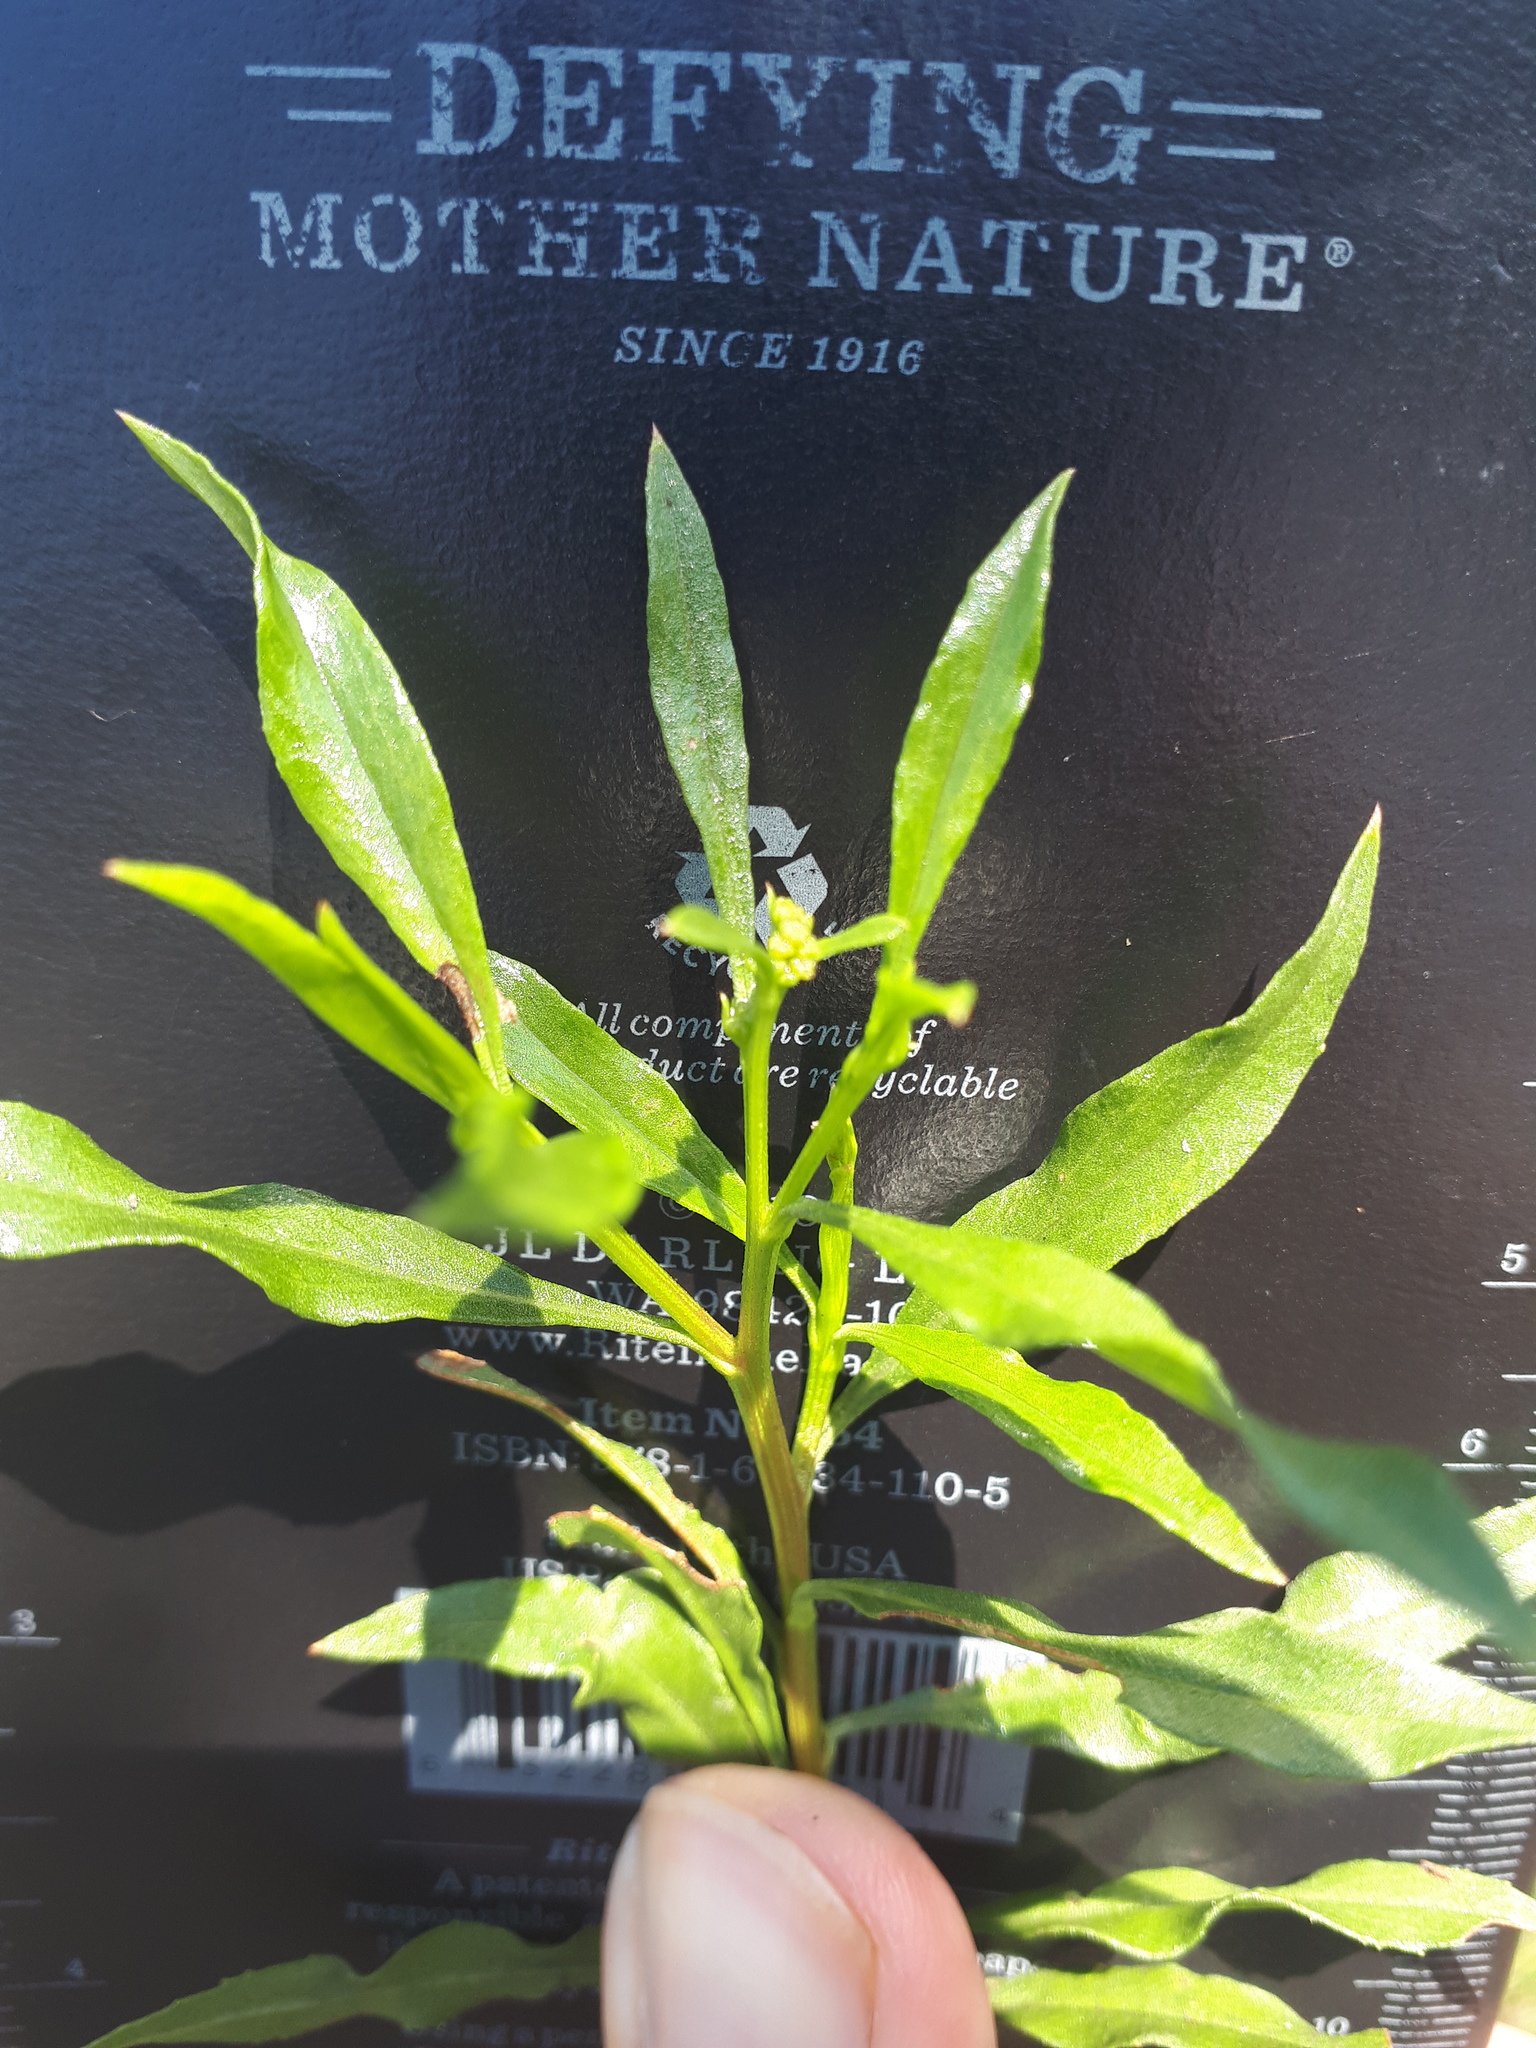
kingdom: Plantae
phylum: Tracheophyta
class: Magnoliopsida
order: Asterales
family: Asteraceae
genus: Psiadia
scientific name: Psiadia punctulata
